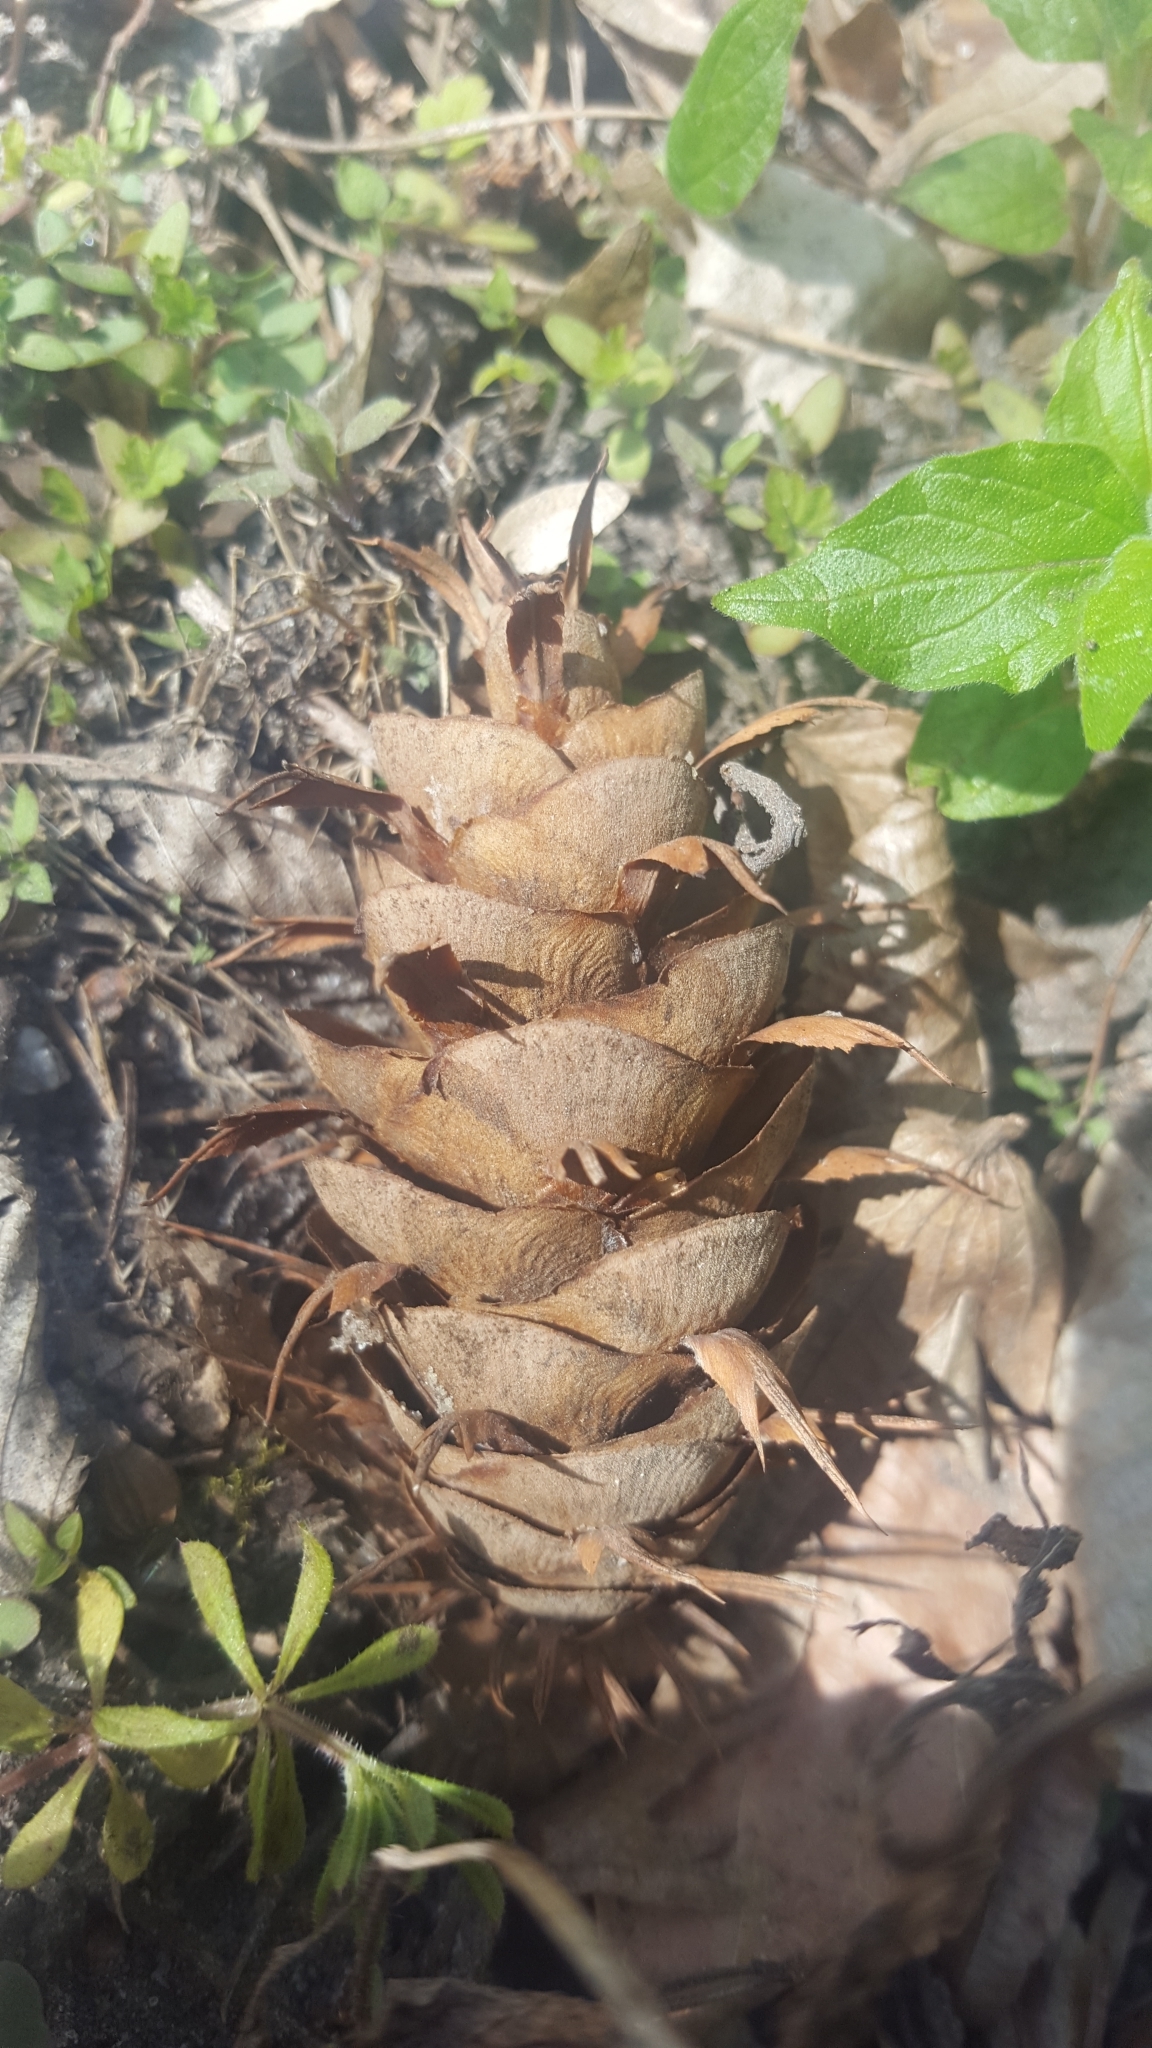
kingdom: Plantae
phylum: Tracheophyta
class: Pinopsida
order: Pinales
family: Pinaceae
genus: Pseudotsuga
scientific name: Pseudotsuga menziesii
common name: Douglas fir
